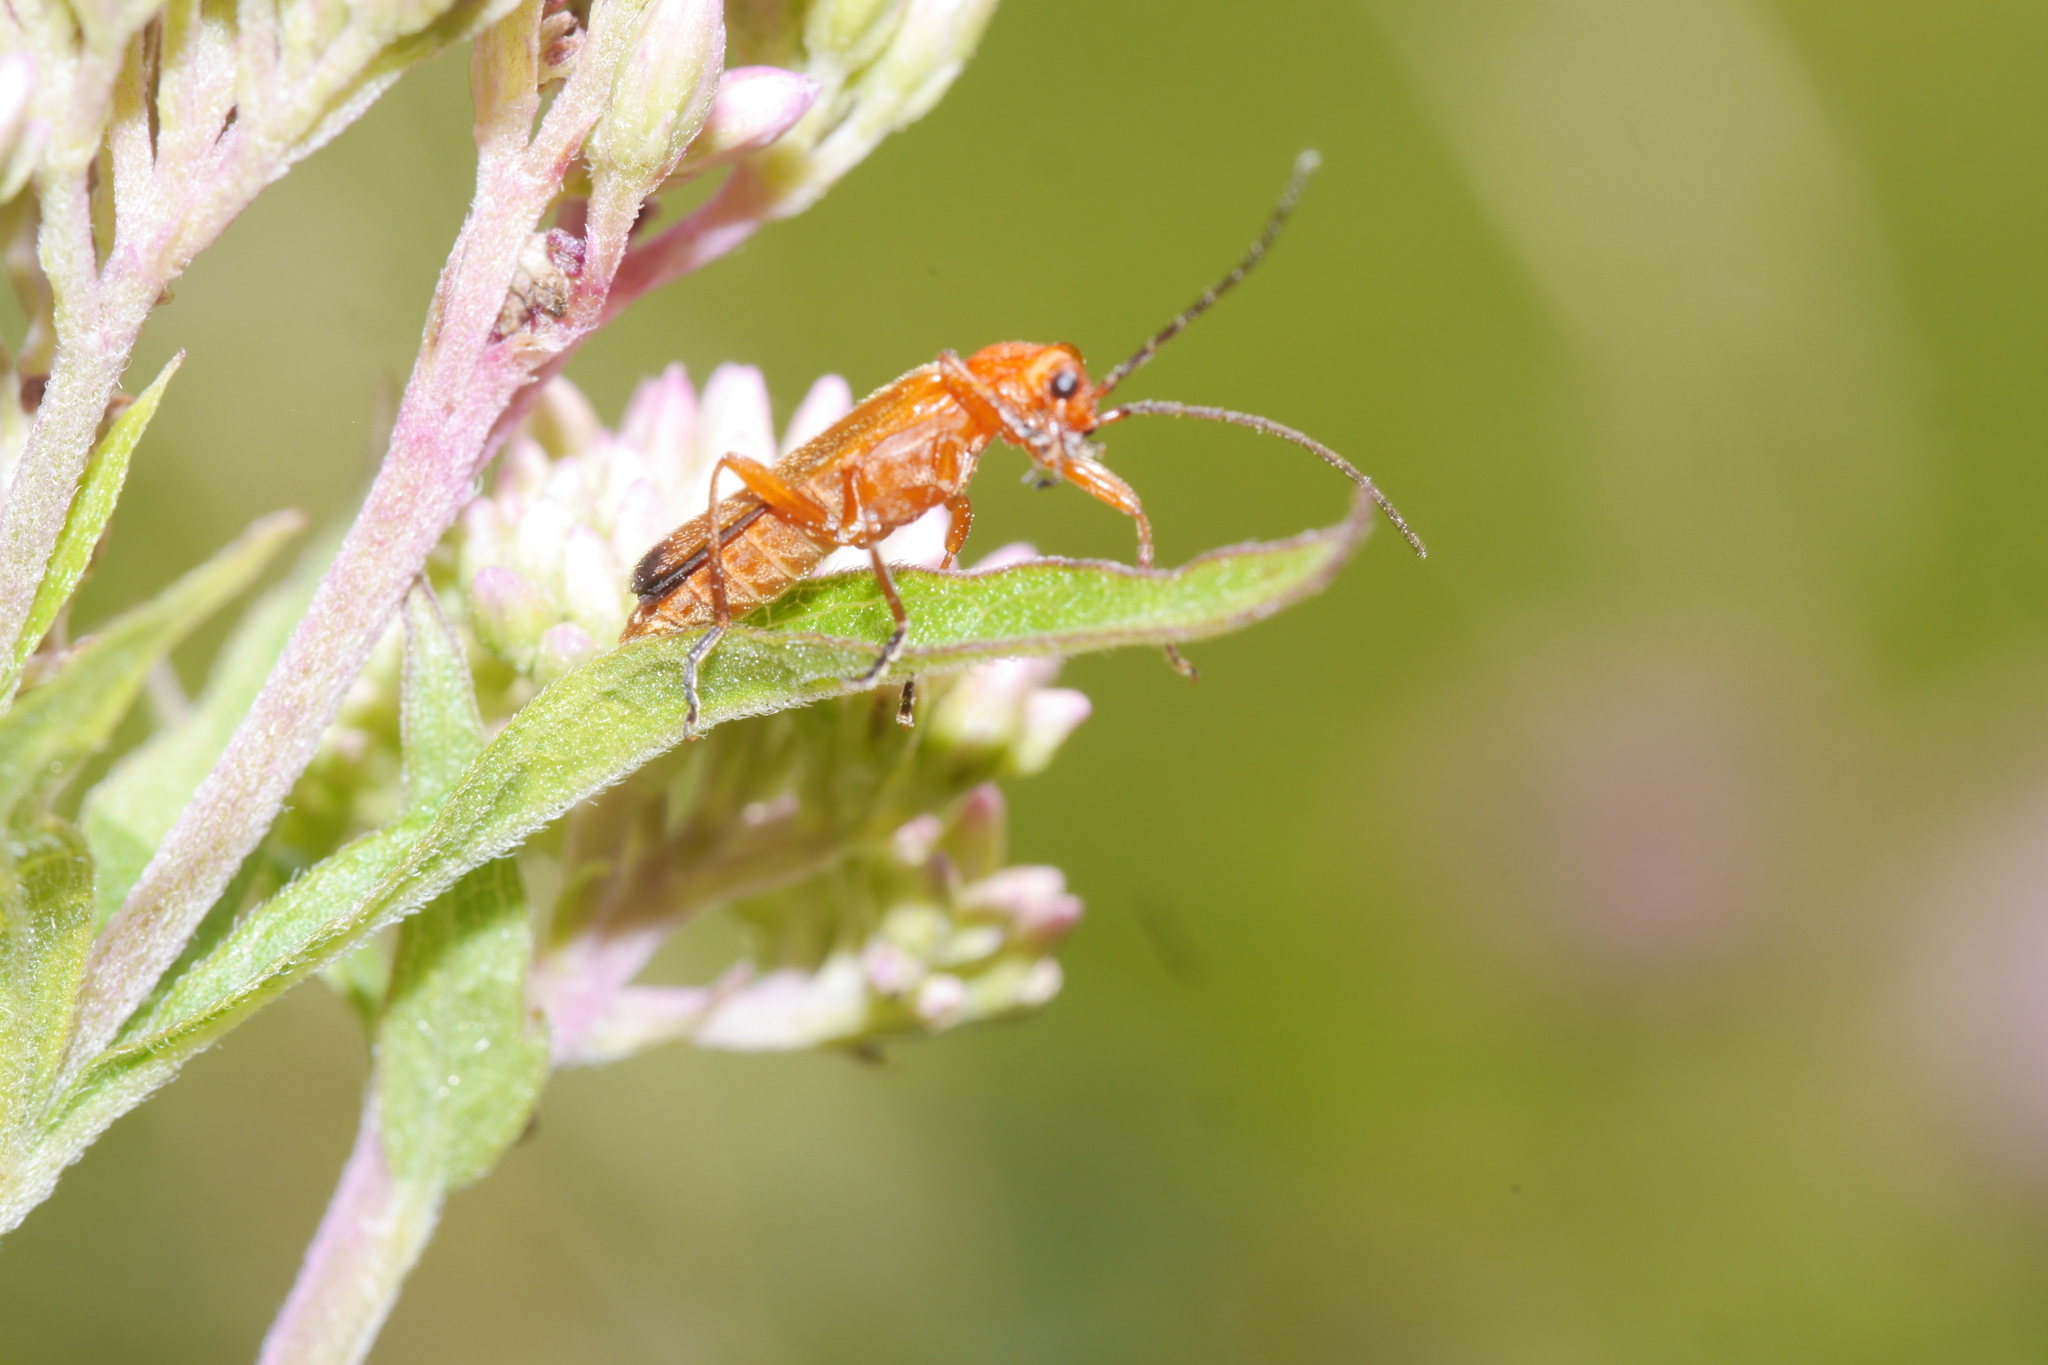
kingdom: Animalia
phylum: Arthropoda
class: Insecta
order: Coleoptera
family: Cantharidae
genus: Rhagonycha
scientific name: Rhagonycha fulva
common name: Common red soldier beetle
